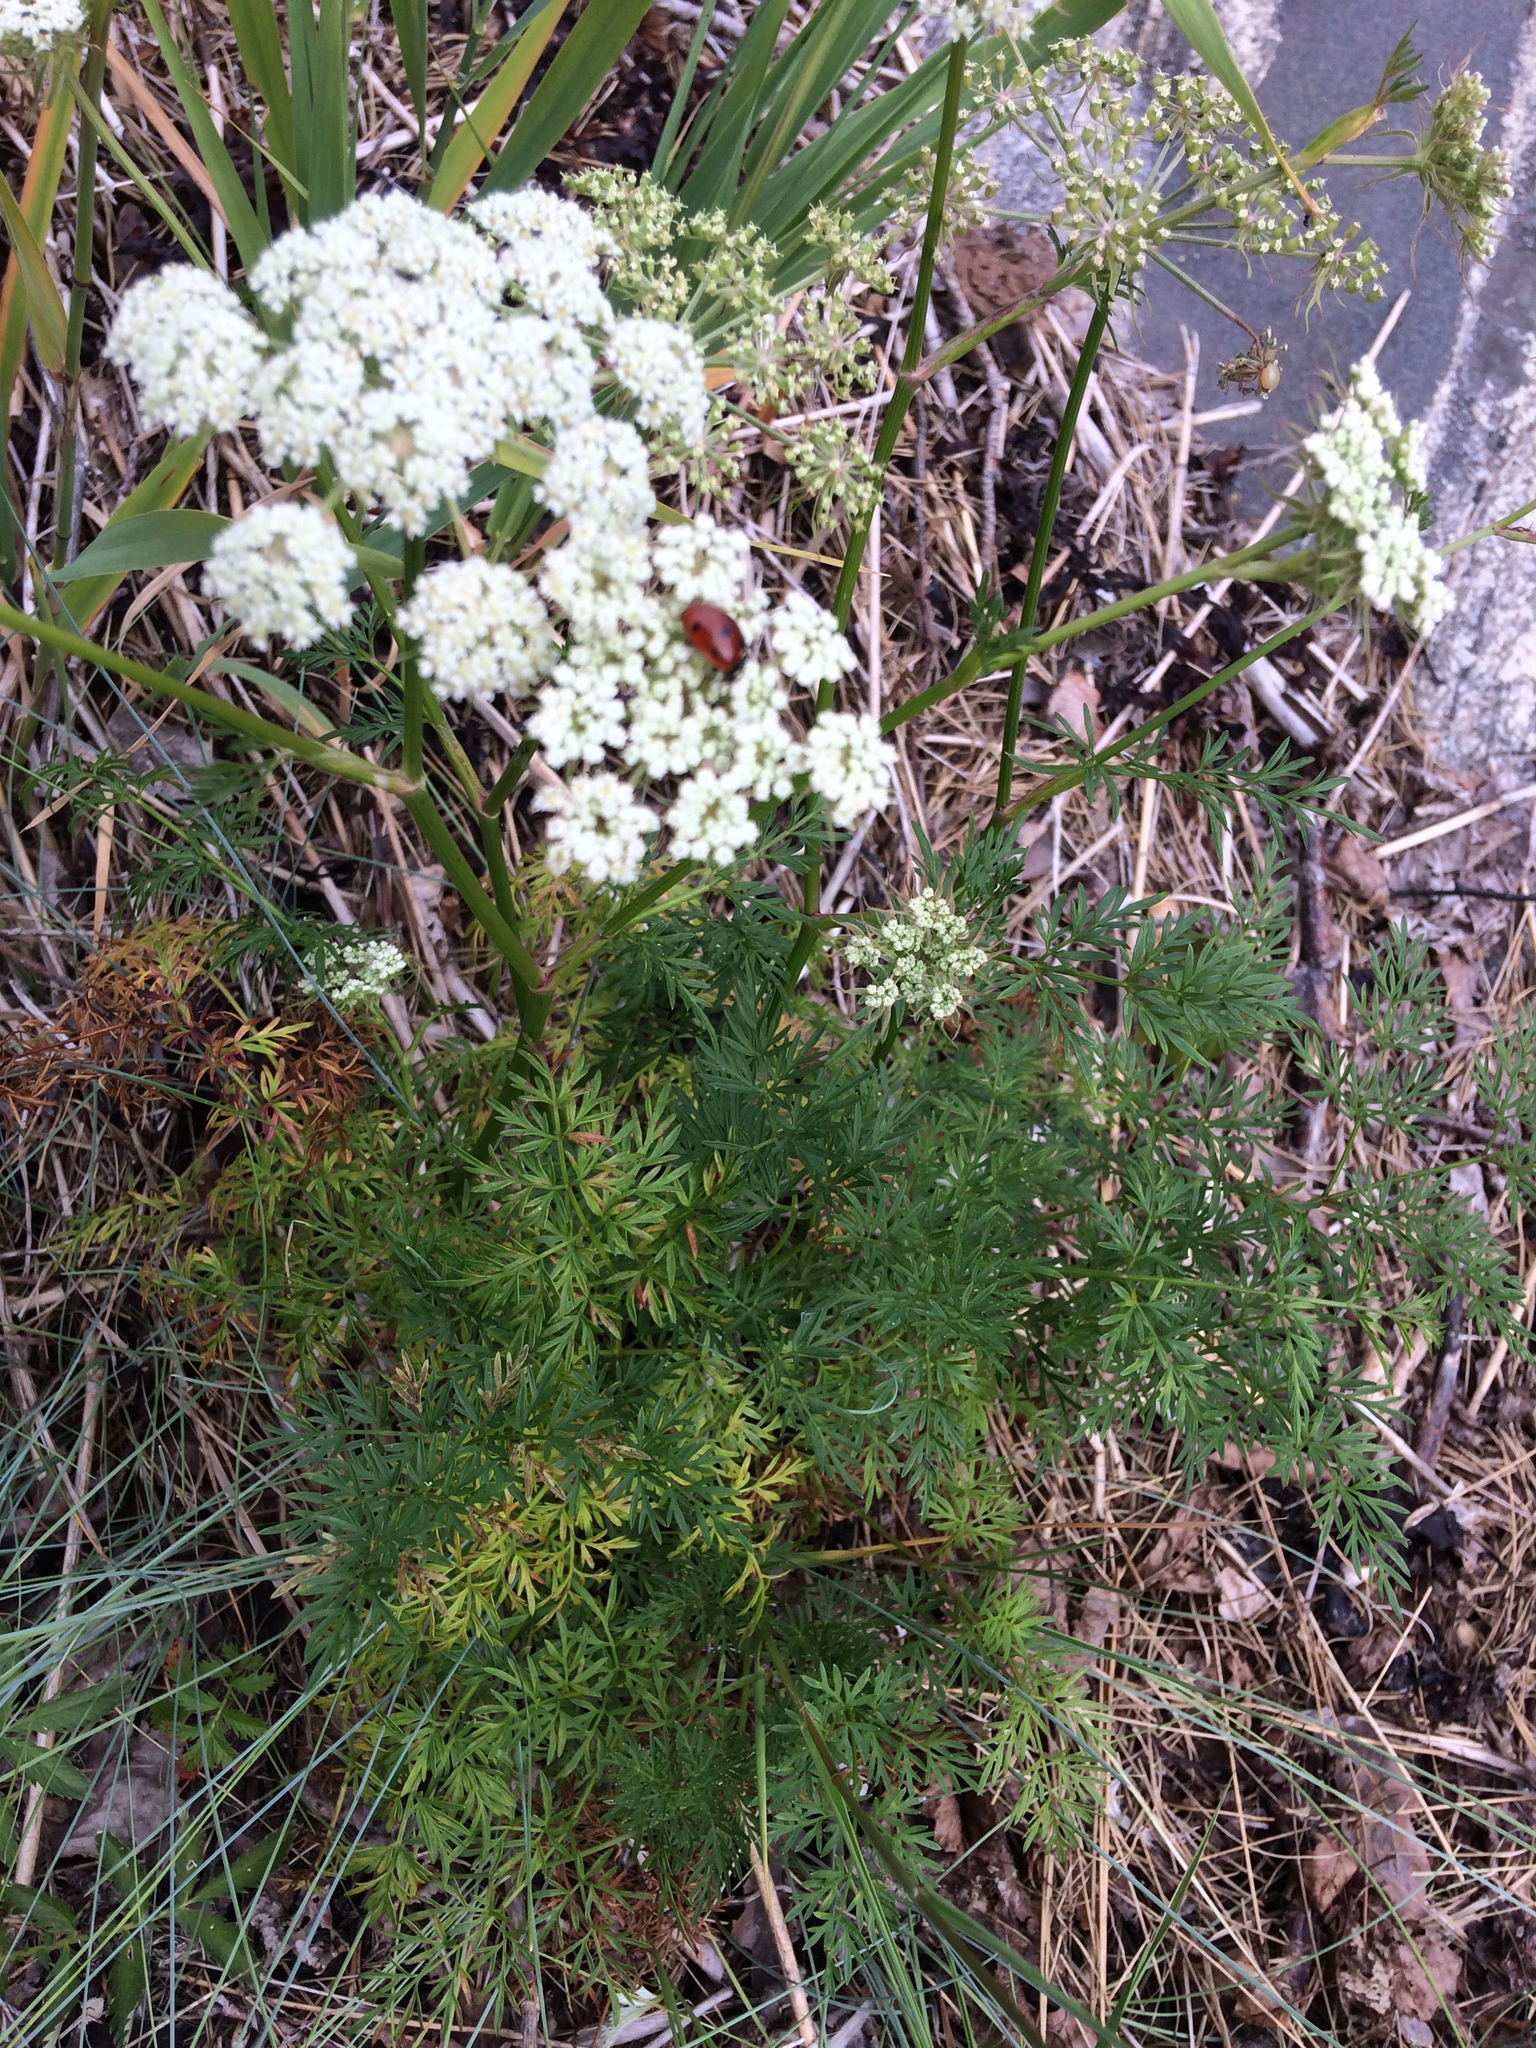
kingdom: Plantae
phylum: Tracheophyta
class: Magnoliopsida
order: Apiales
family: Apiaceae
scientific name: Apiaceae
